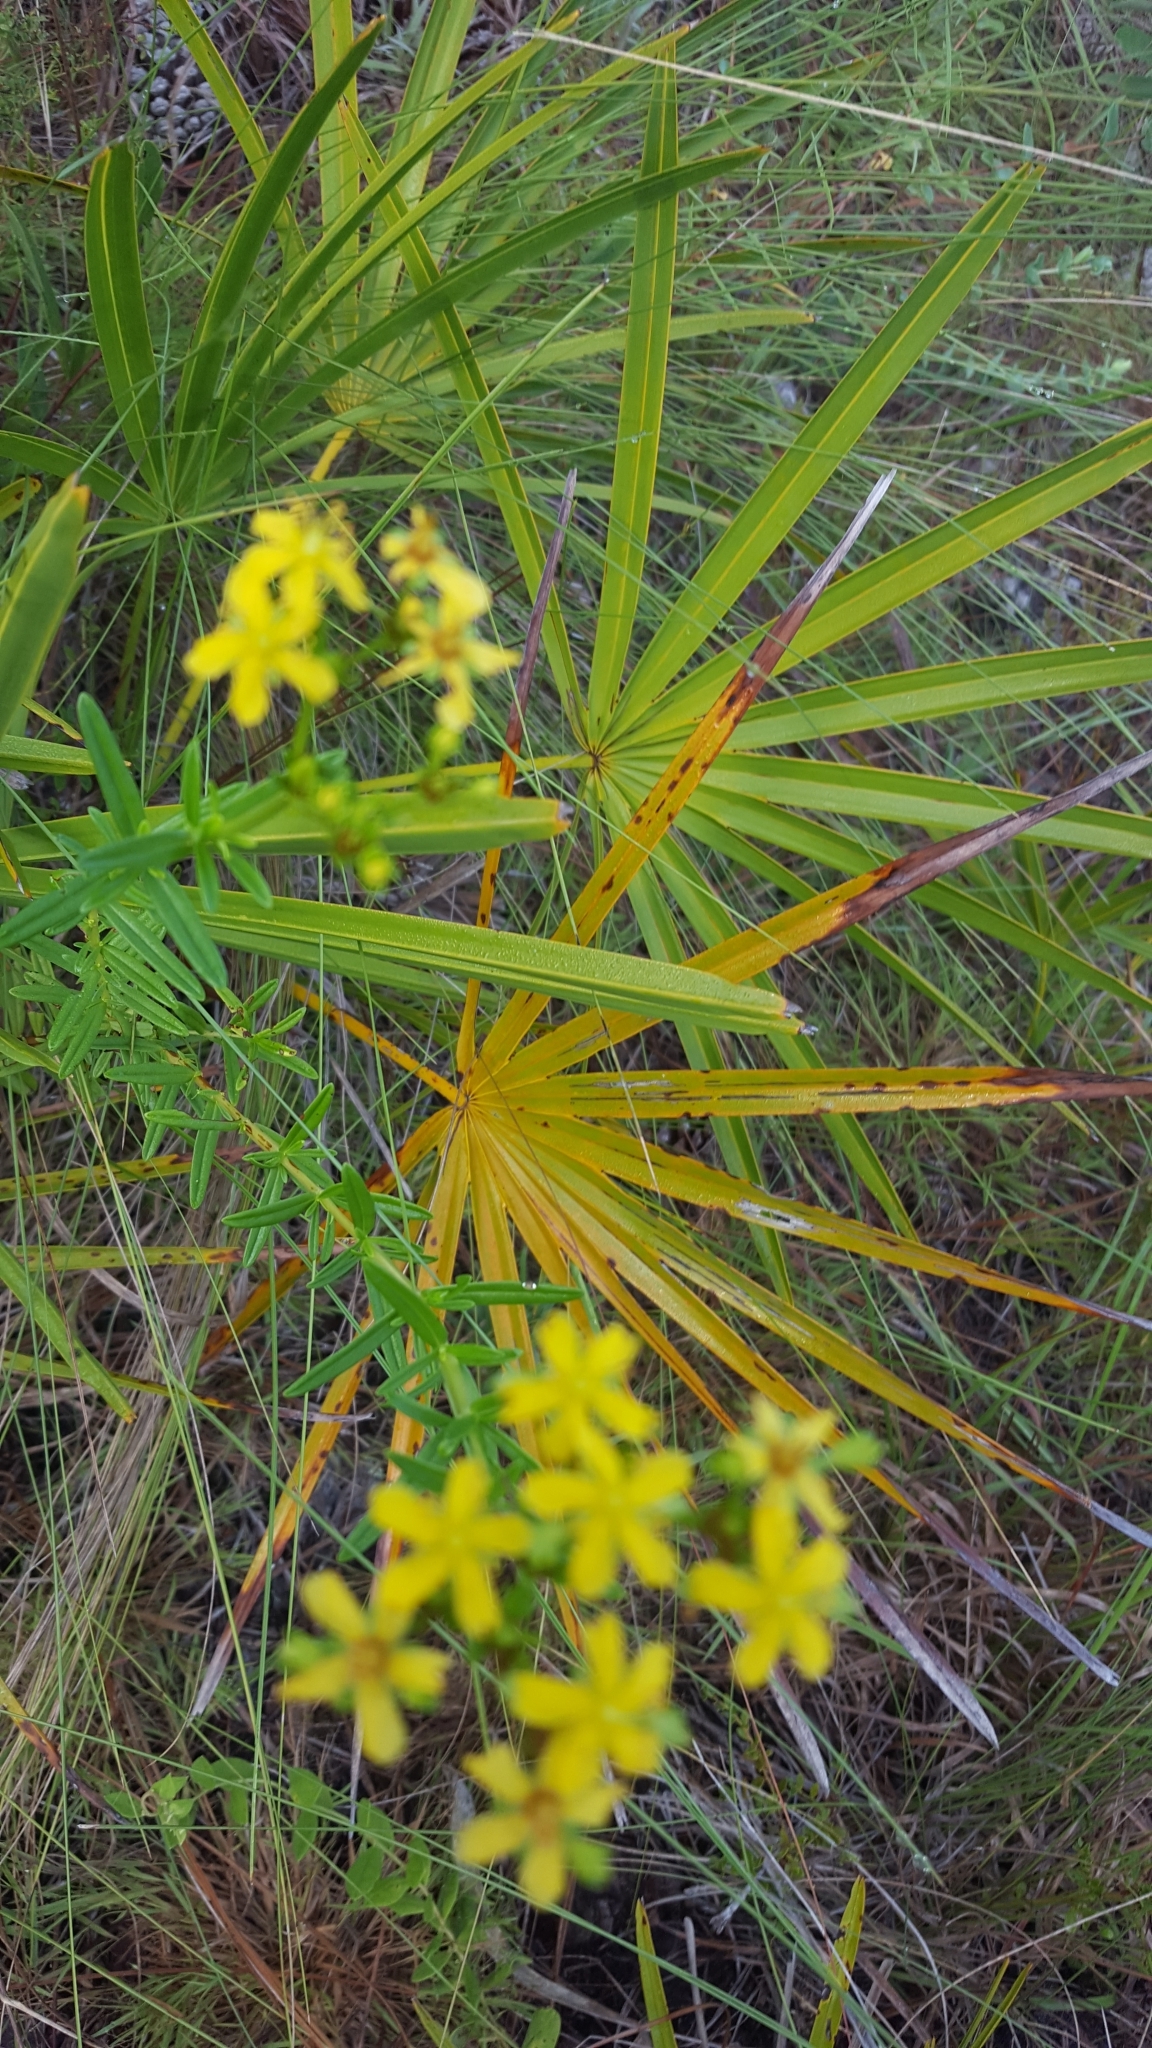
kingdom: Plantae
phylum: Tracheophyta
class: Magnoliopsida
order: Malpighiales
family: Hypericaceae
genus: Hypericum
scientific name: Hypericum cistifolium
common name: Round-pod st. john's-wort
